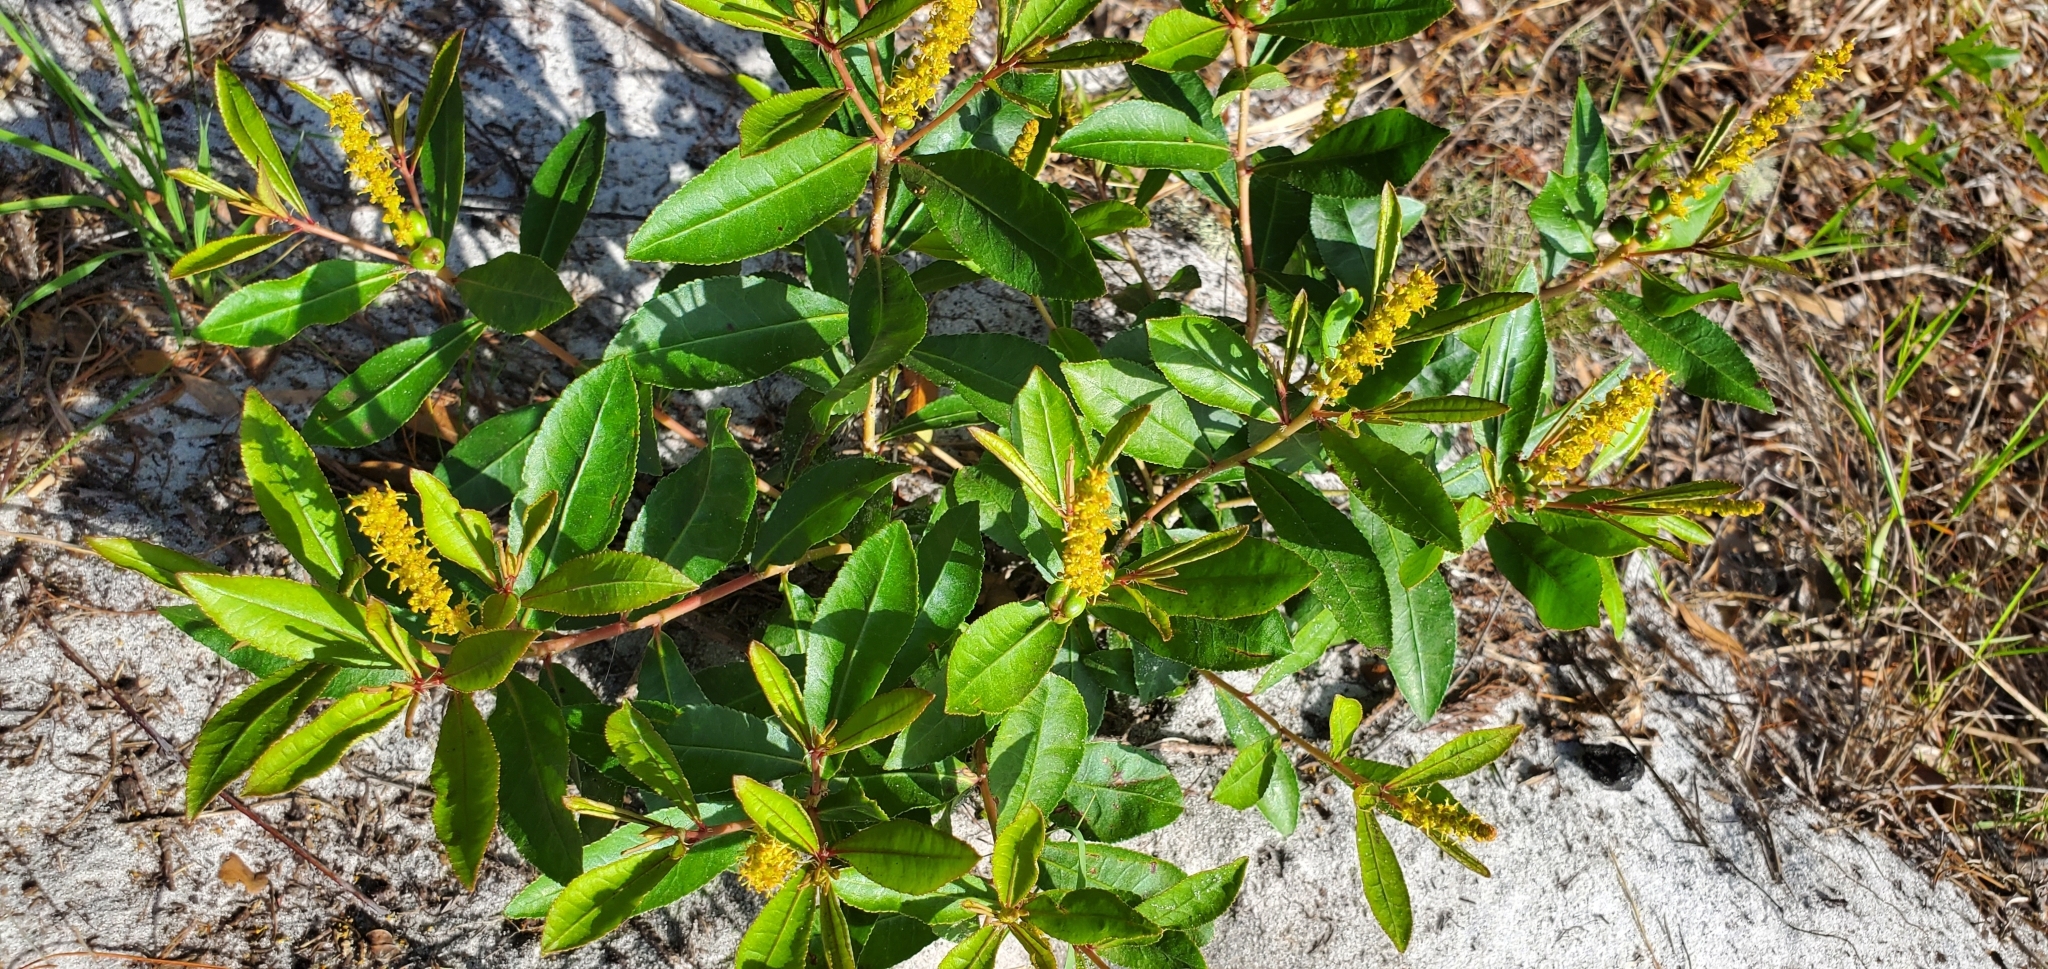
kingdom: Plantae
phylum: Tracheophyta
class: Magnoliopsida
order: Malpighiales
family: Euphorbiaceae
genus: Stillingia
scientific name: Stillingia sylvatica
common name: Queen's-delight
